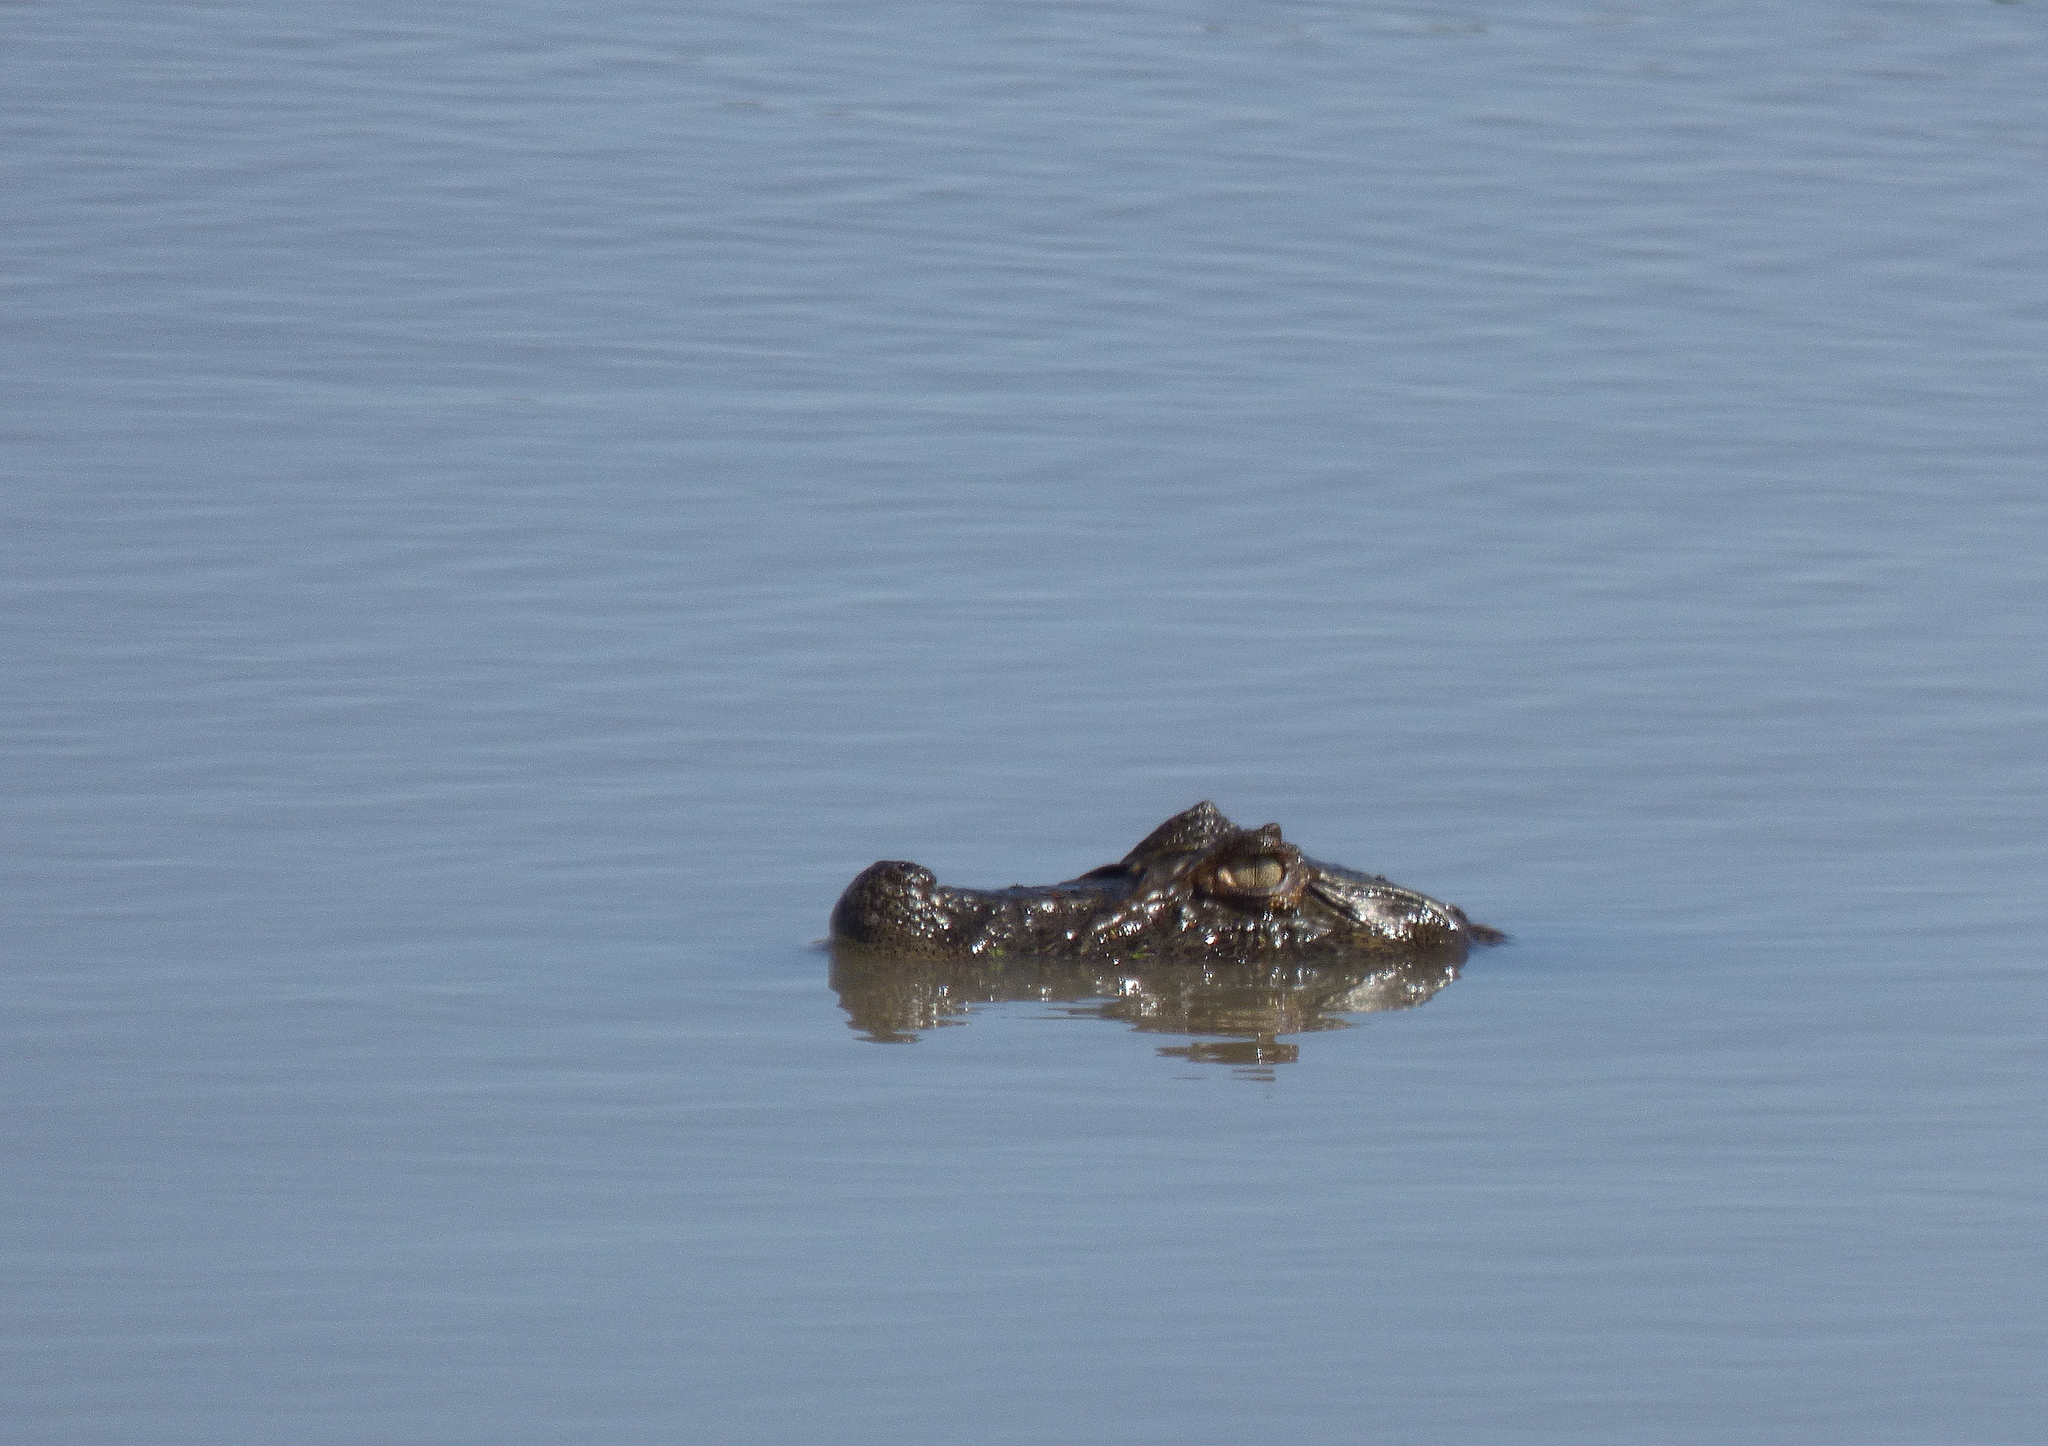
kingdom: Animalia
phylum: Chordata
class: Crocodylia
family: Alligatoridae
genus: Caiman
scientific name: Caiman latirostris
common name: Broad-snouted caiman
